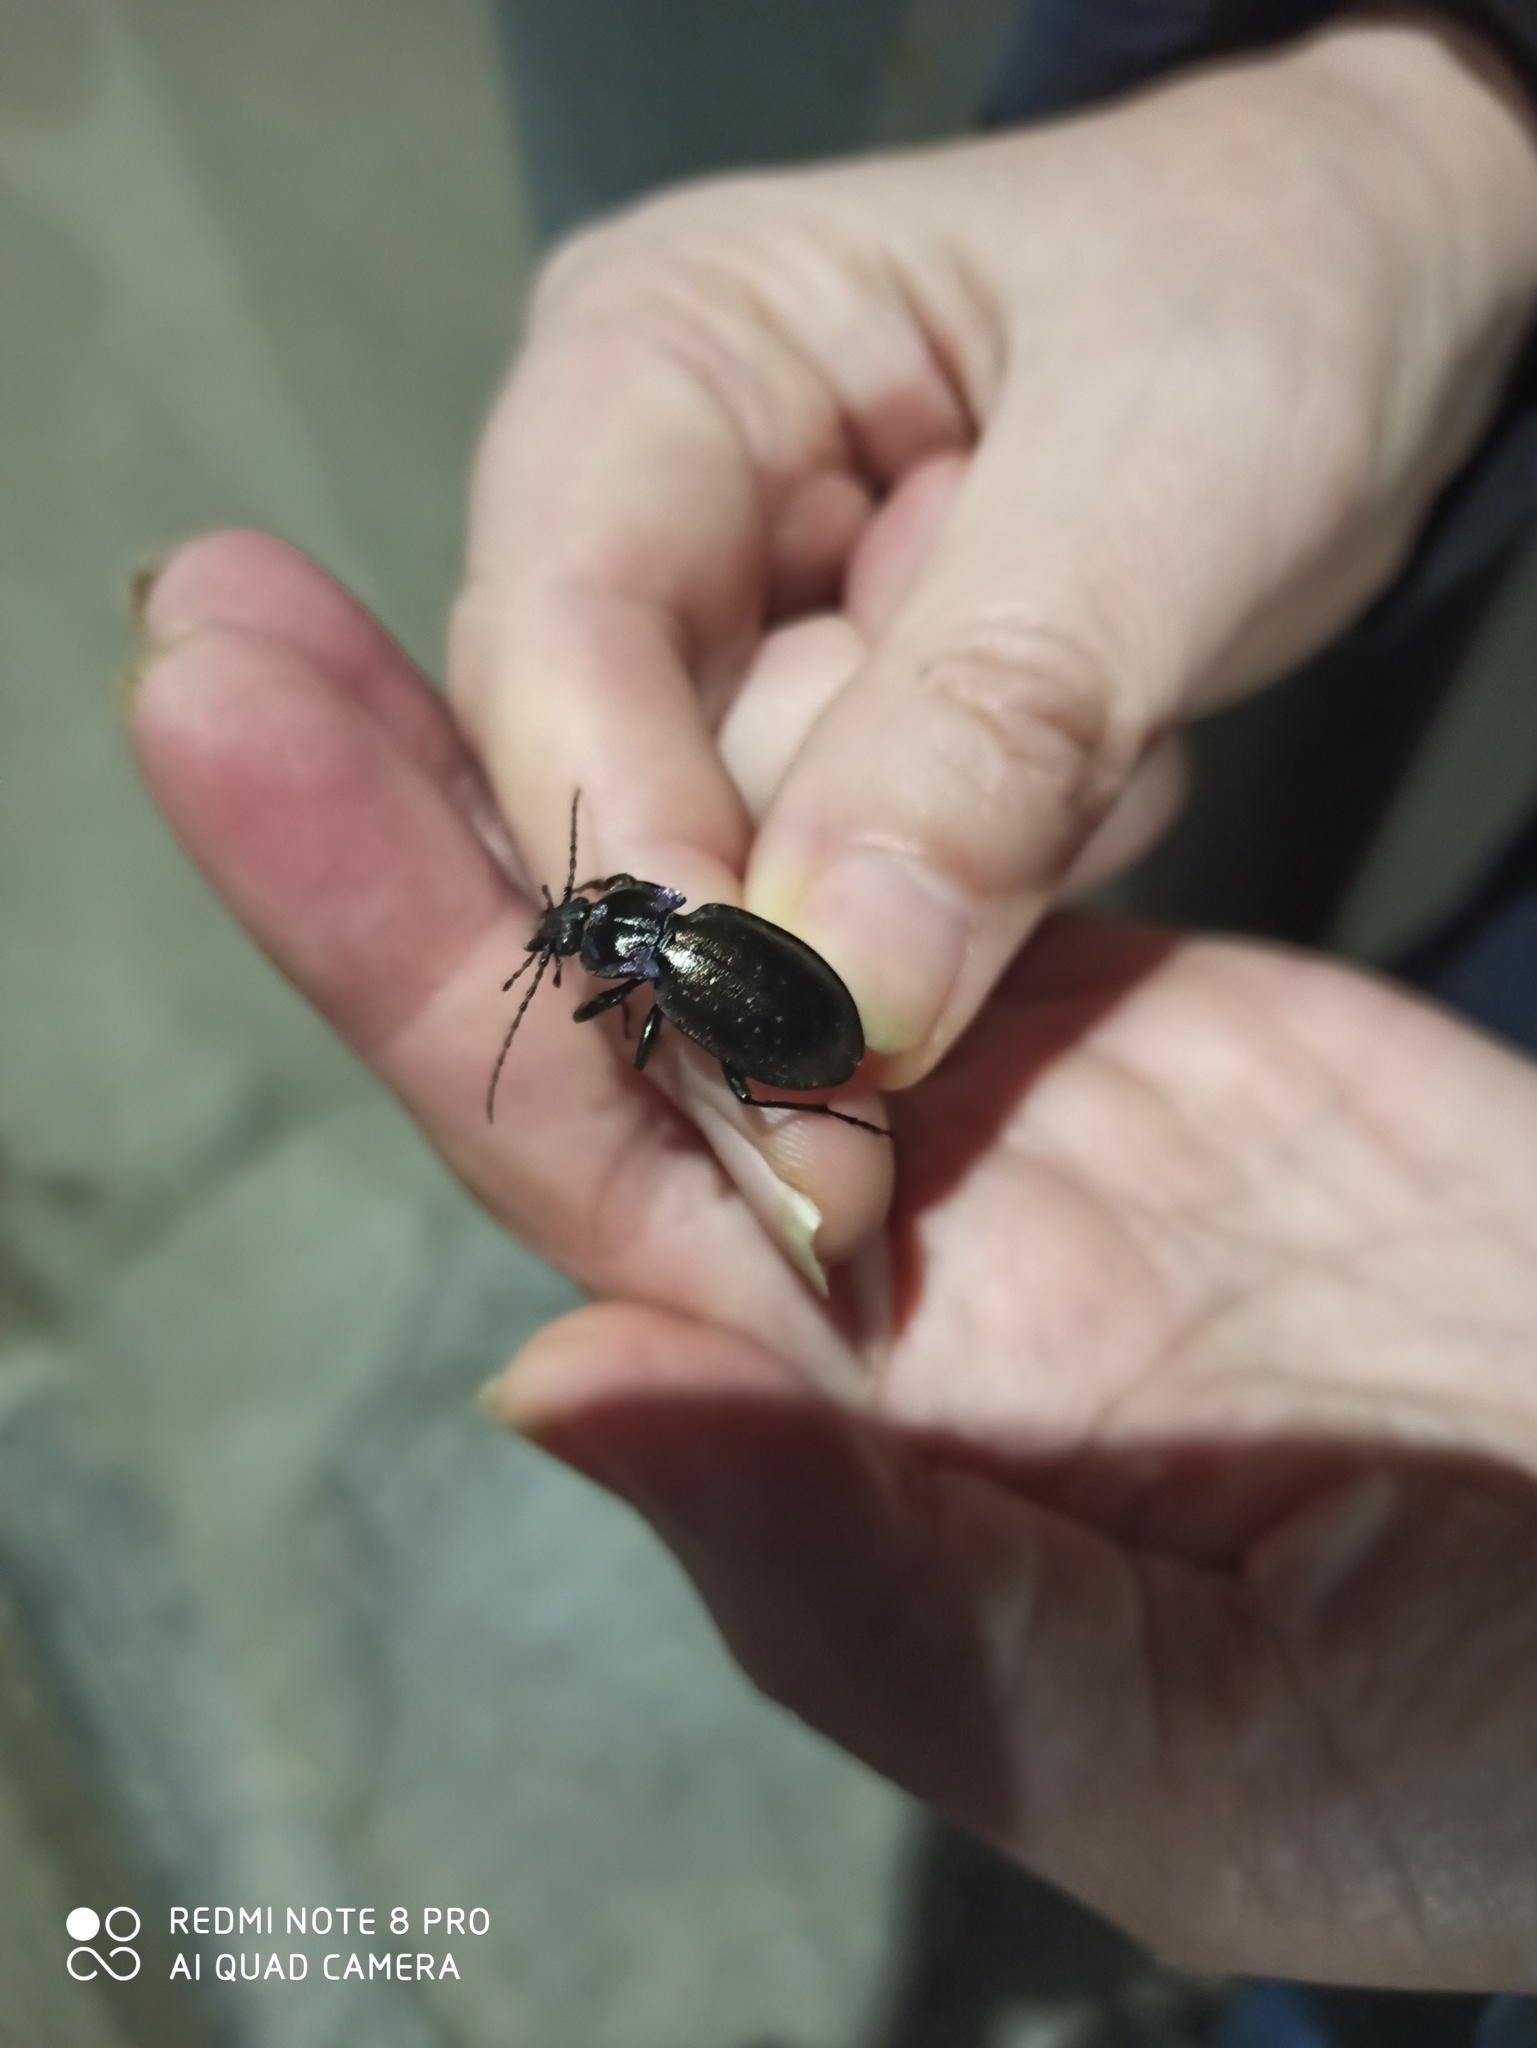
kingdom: Animalia
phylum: Arthropoda
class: Insecta
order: Coleoptera
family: Carabidae
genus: Carabus
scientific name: Carabus nemoralis
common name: European ground beetle
